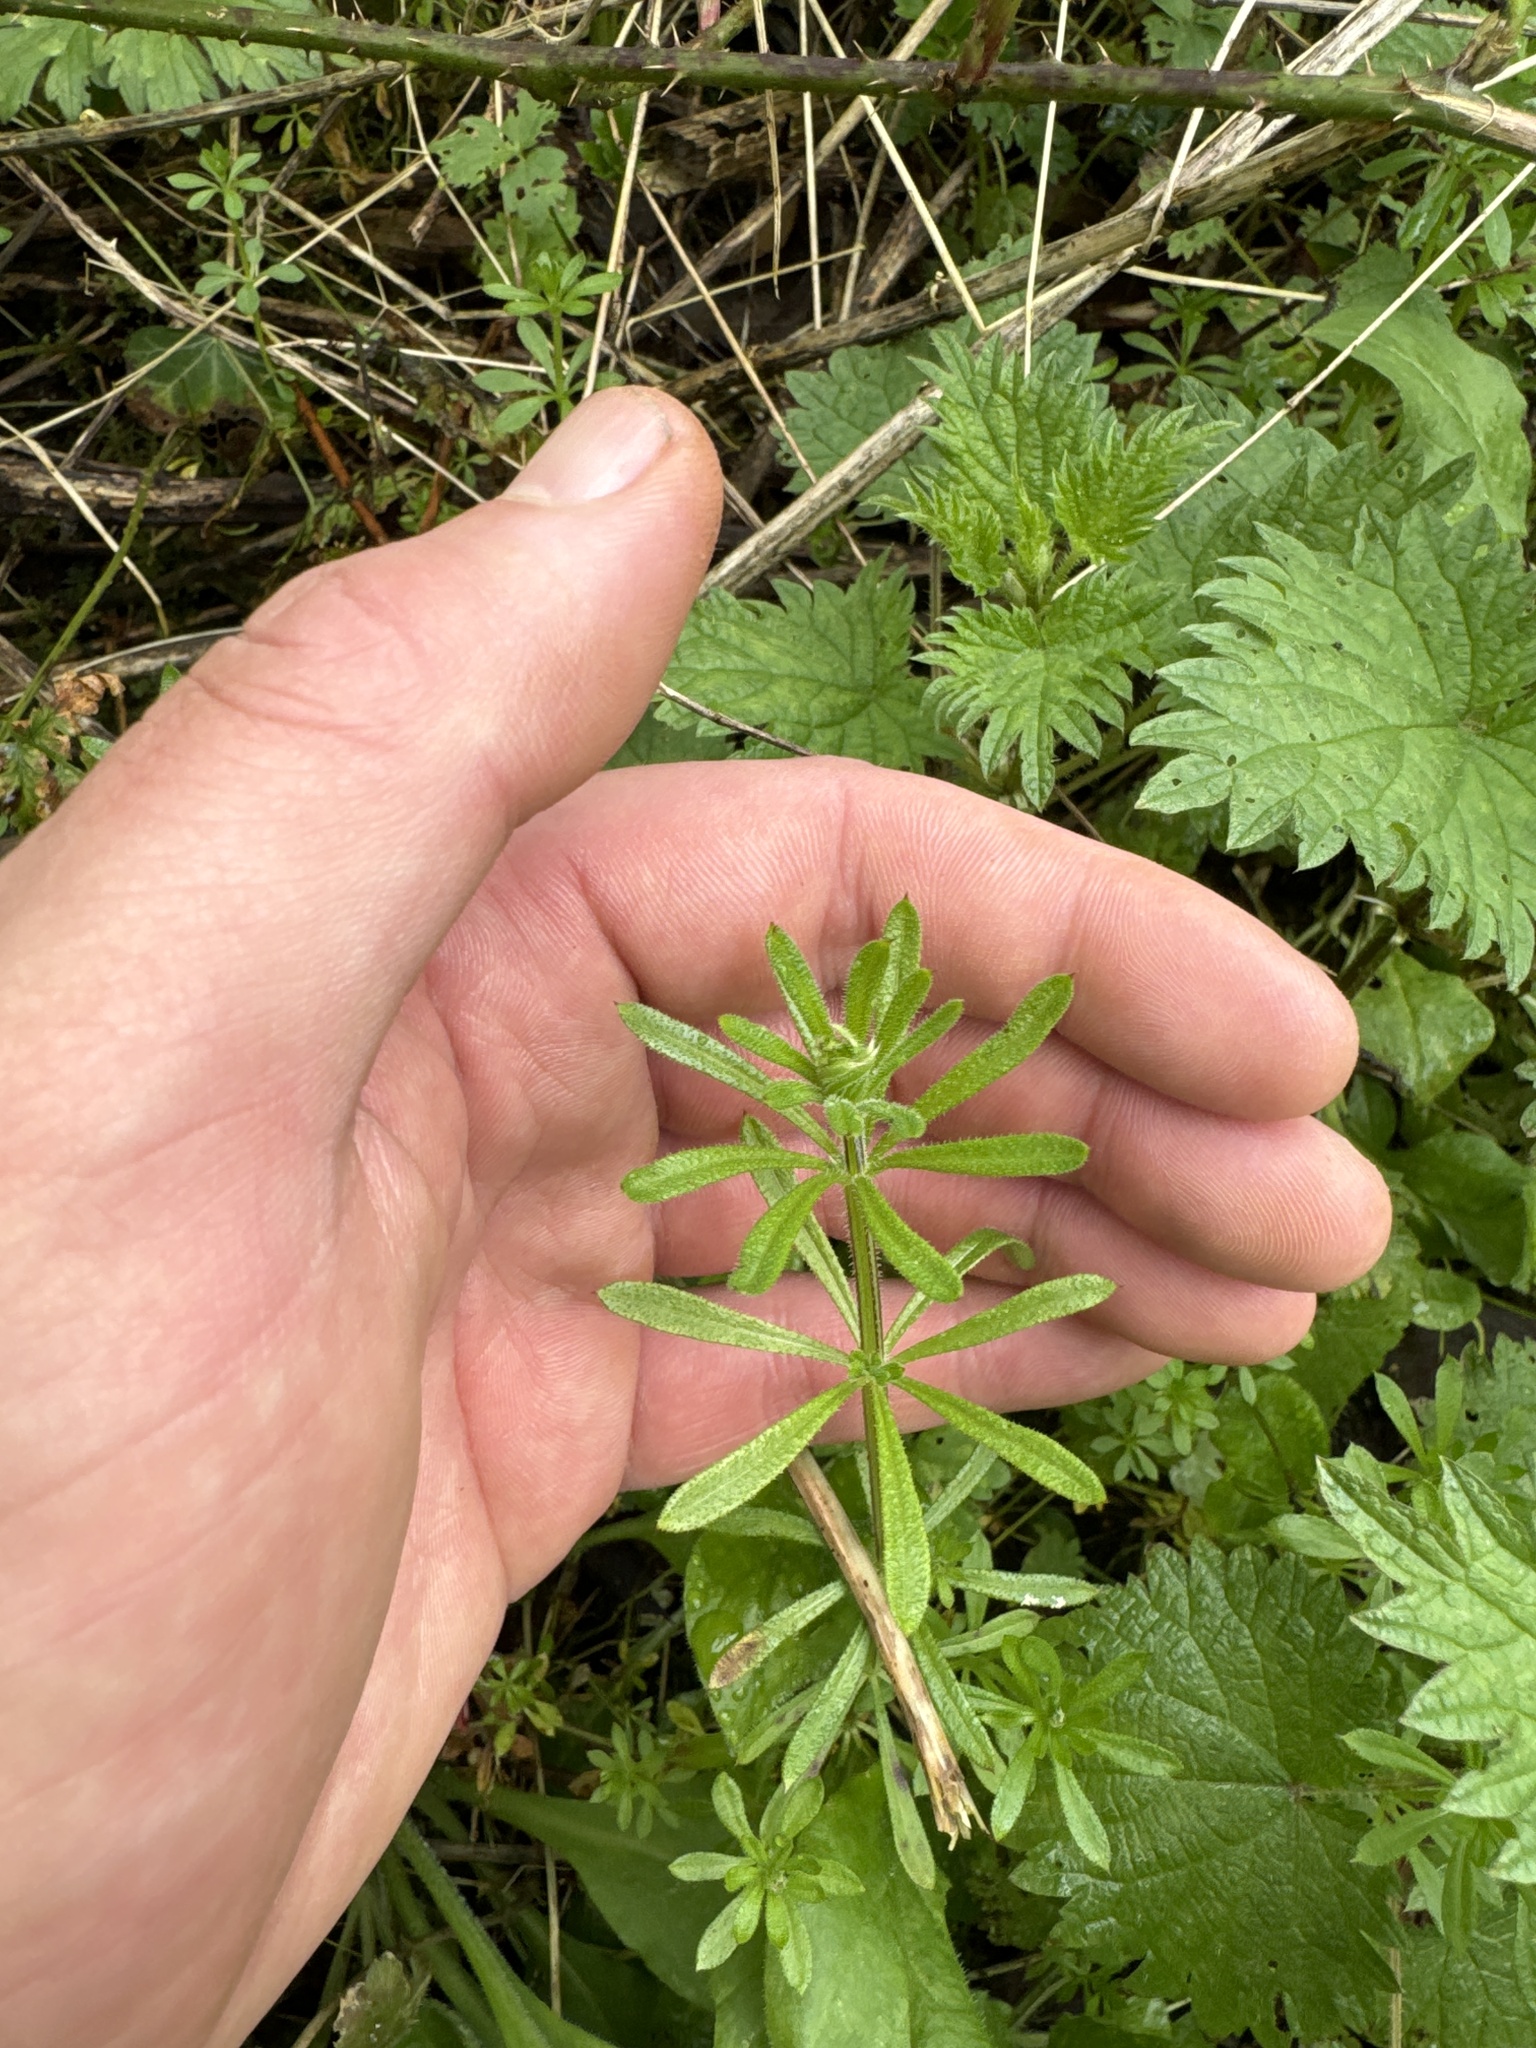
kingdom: Plantae
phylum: Tracheophyta
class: Magnoliopsida
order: Gentianales
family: Rubiaceae
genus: Galium
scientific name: Galium aparine
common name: Cleavers
